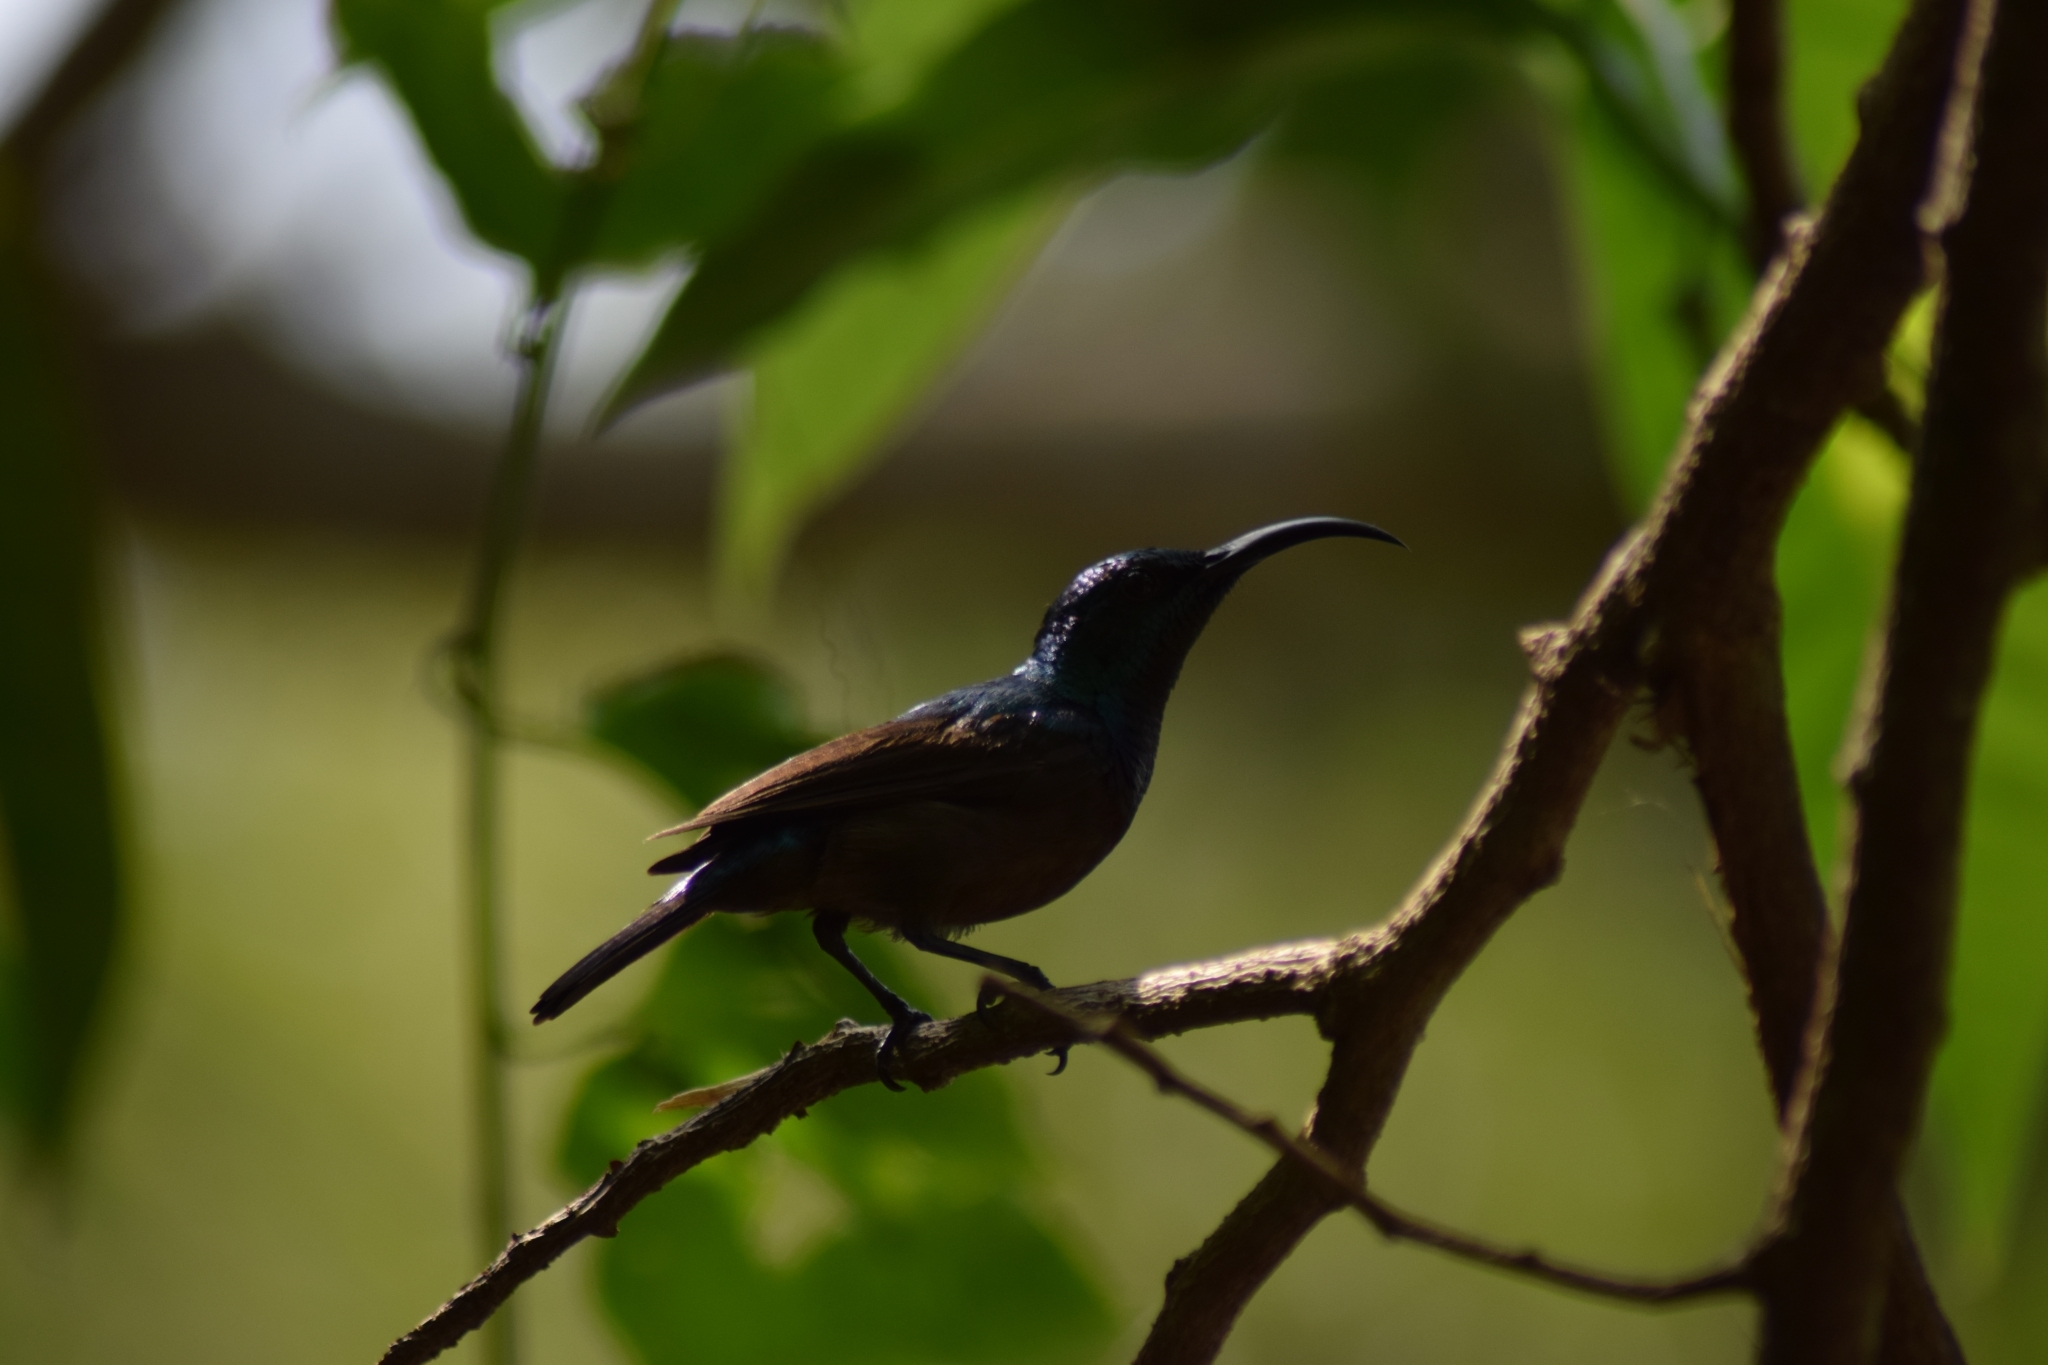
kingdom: Animalia
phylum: Chordata
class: Aves
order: Passeriformes
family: Nectariniidae
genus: Cinnyris
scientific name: Cinnyris lotenius
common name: Loten's sunbird
